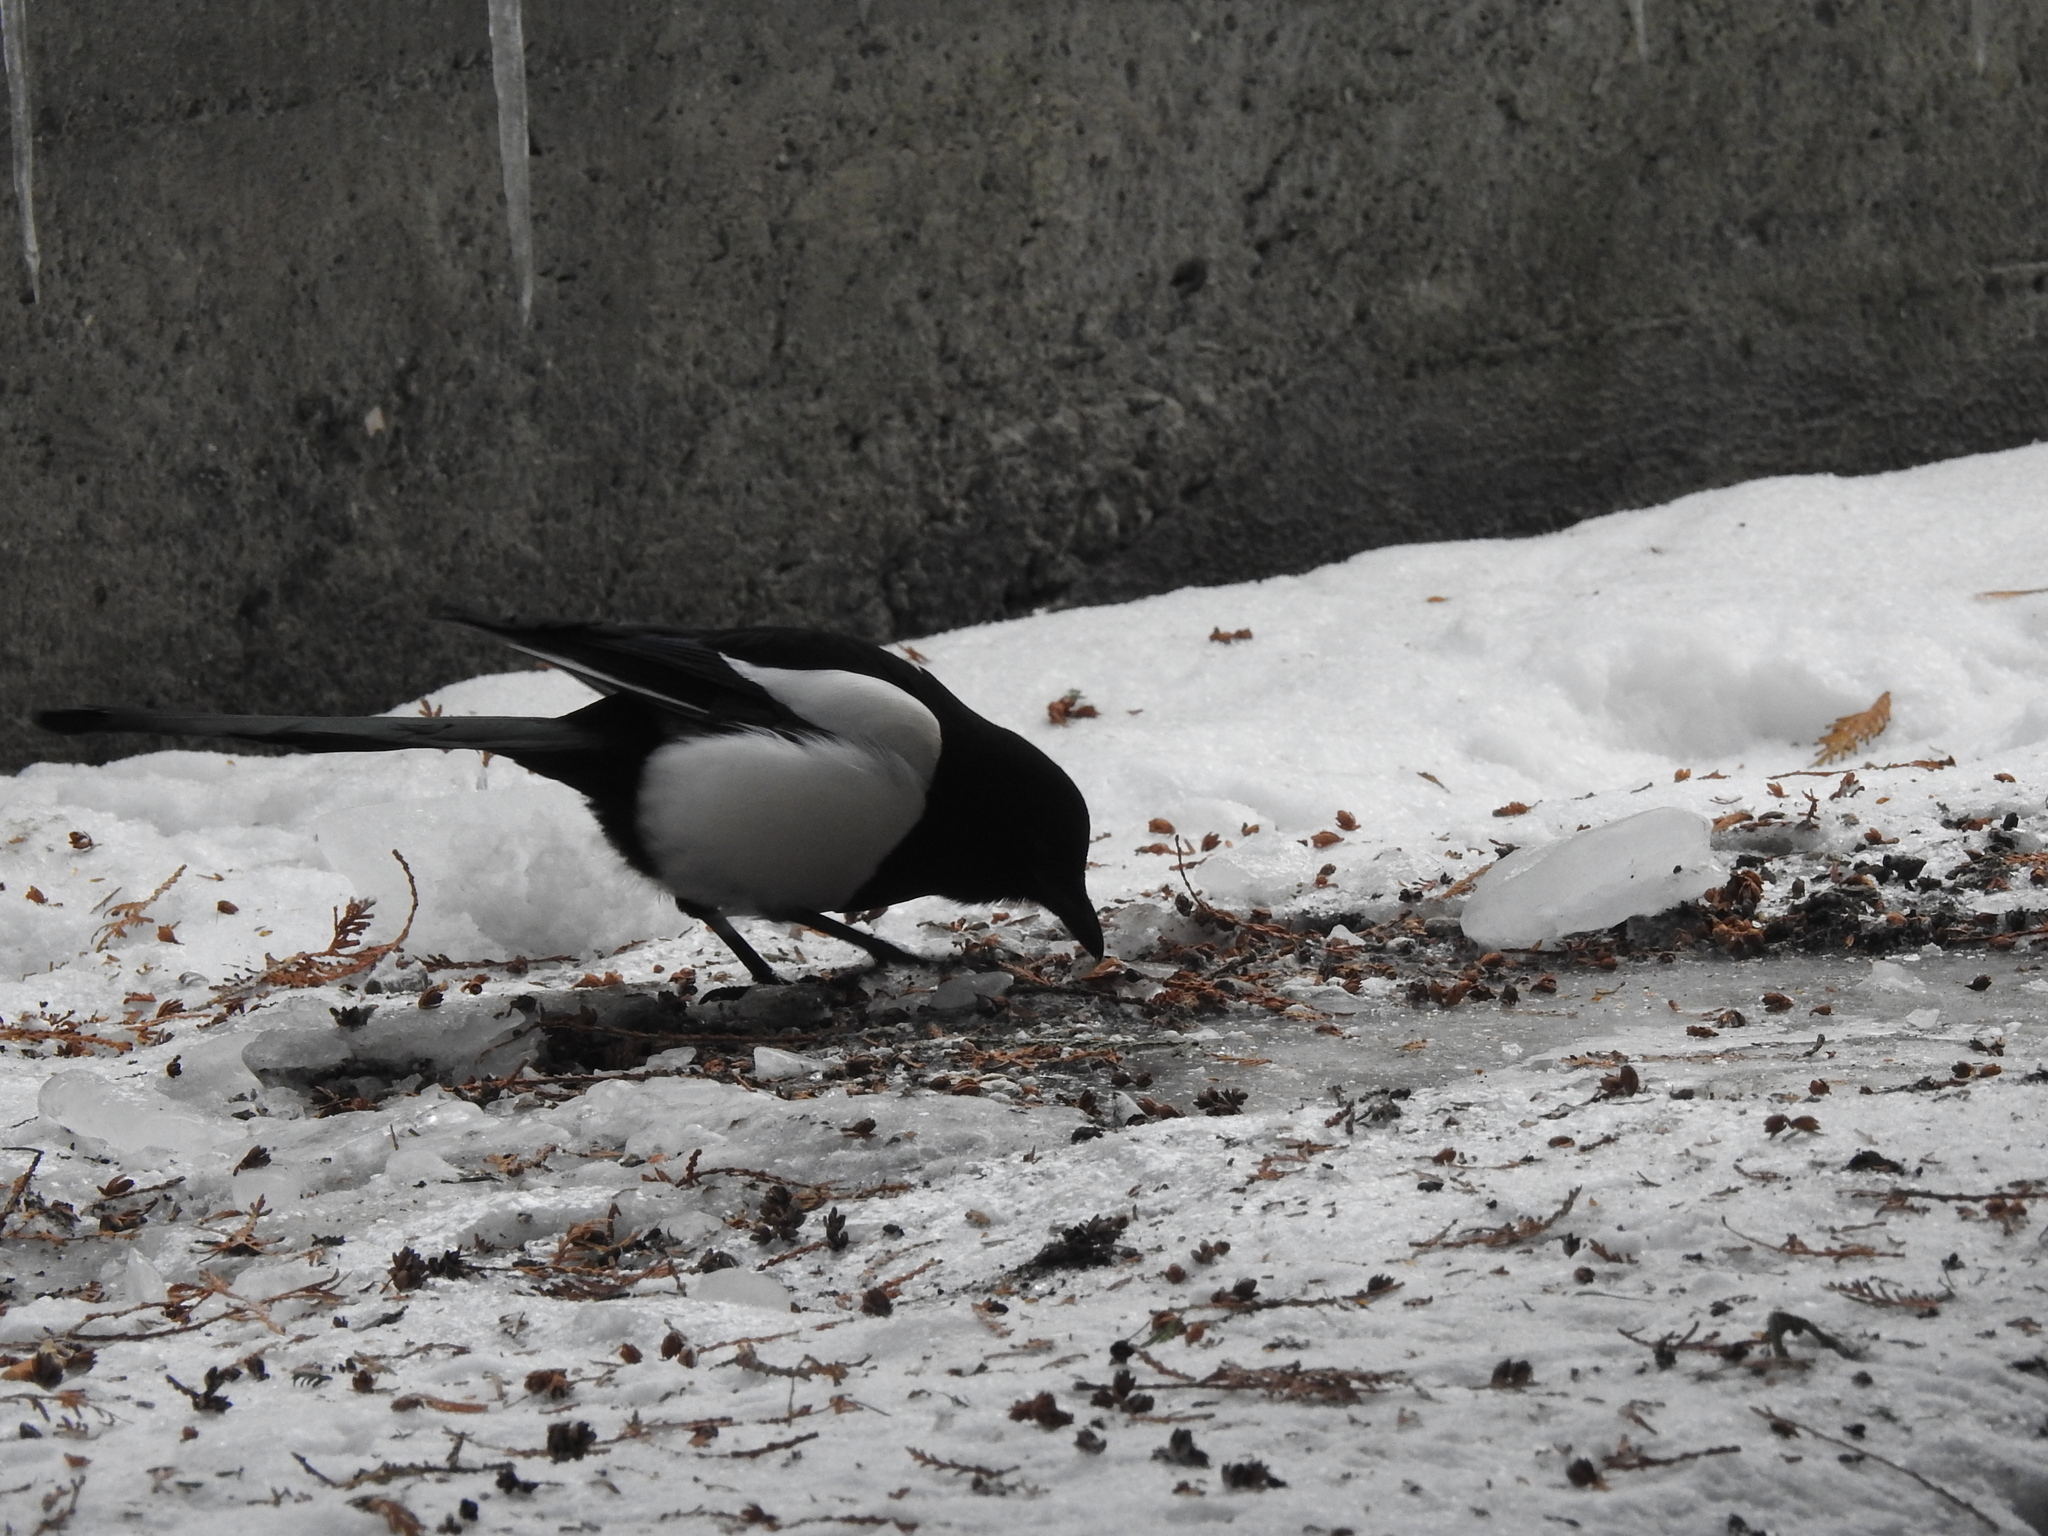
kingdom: Animalia
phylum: Chordata
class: Aves
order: Passeriformes
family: Corvidae
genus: Pica
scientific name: Pica pica
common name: Eurasian magpie
